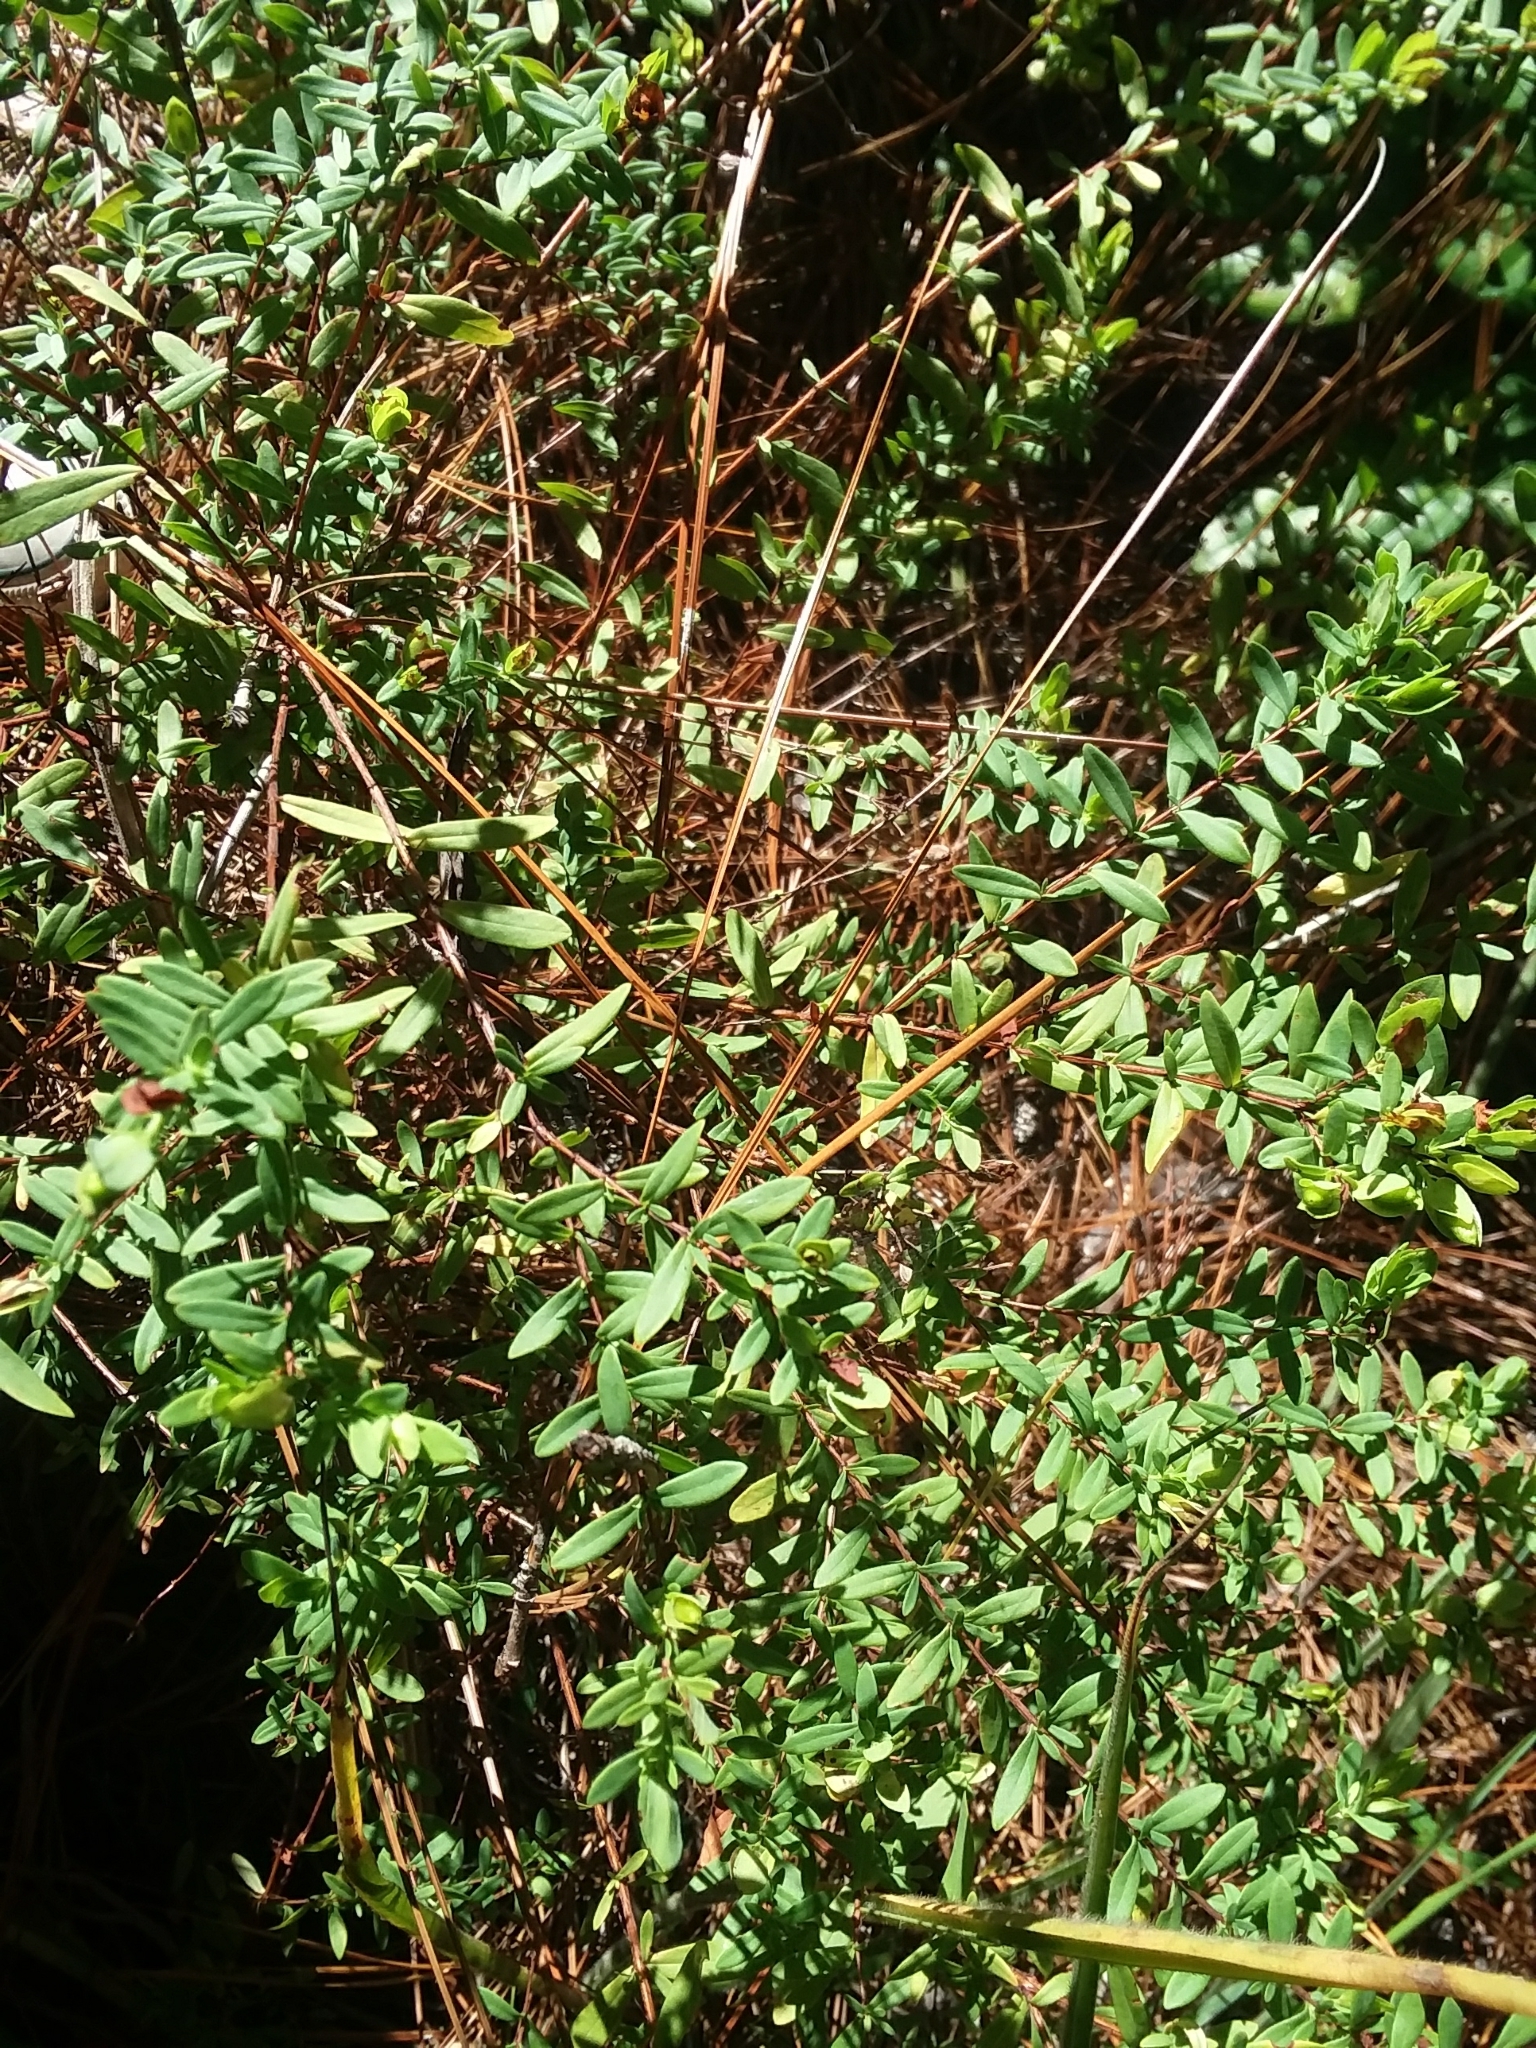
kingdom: Plantae
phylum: Tracheophyta
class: Magnoliopsida
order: Malpighiales
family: Hypericaceae
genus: Hypericum
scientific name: Hypericum hypericoides
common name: St. andrew's cross
